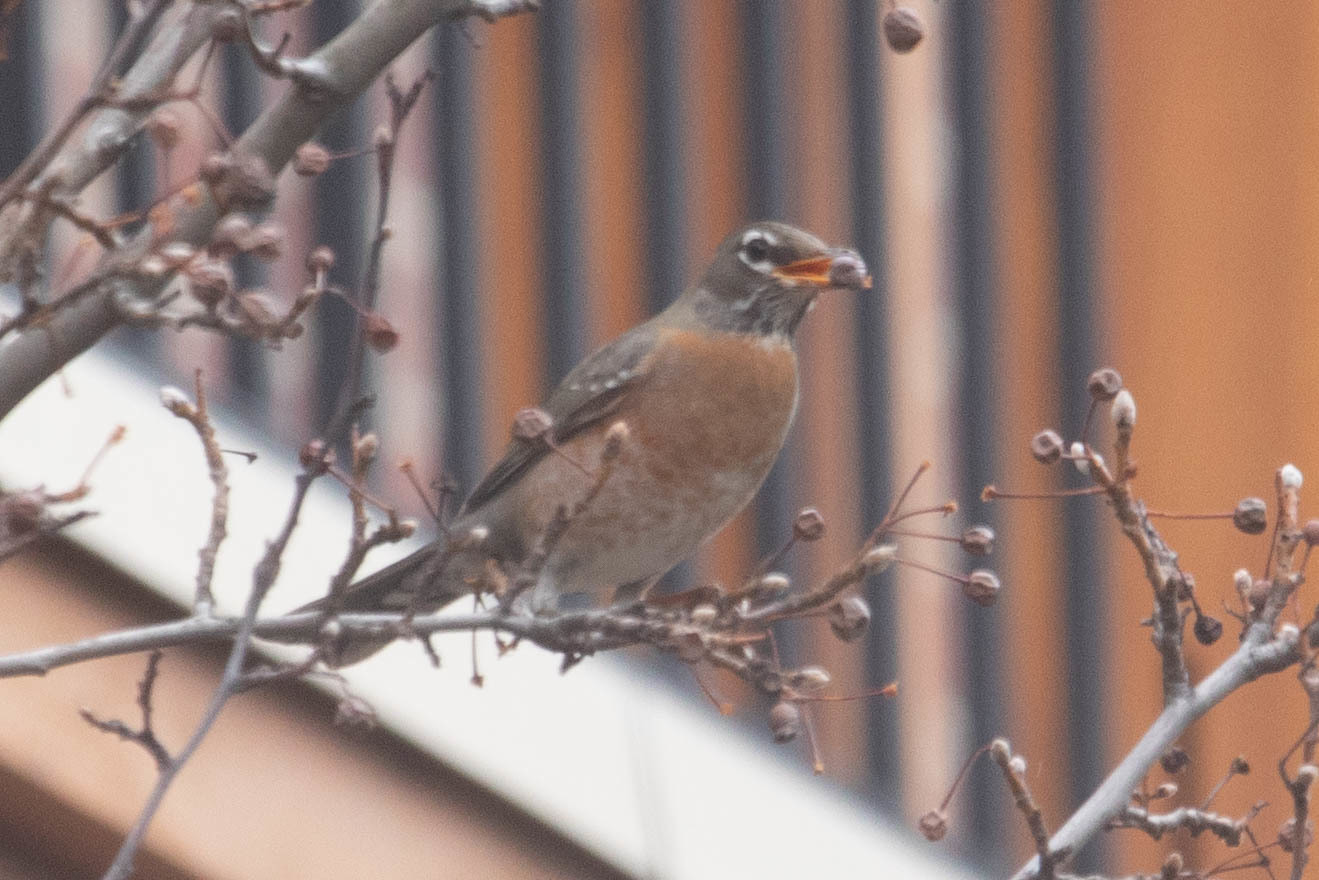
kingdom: Animalia
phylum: Chordata
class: Aves
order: Passeriformes
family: Turdidae
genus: Turdus
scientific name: Turdus migratorius
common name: American robin
